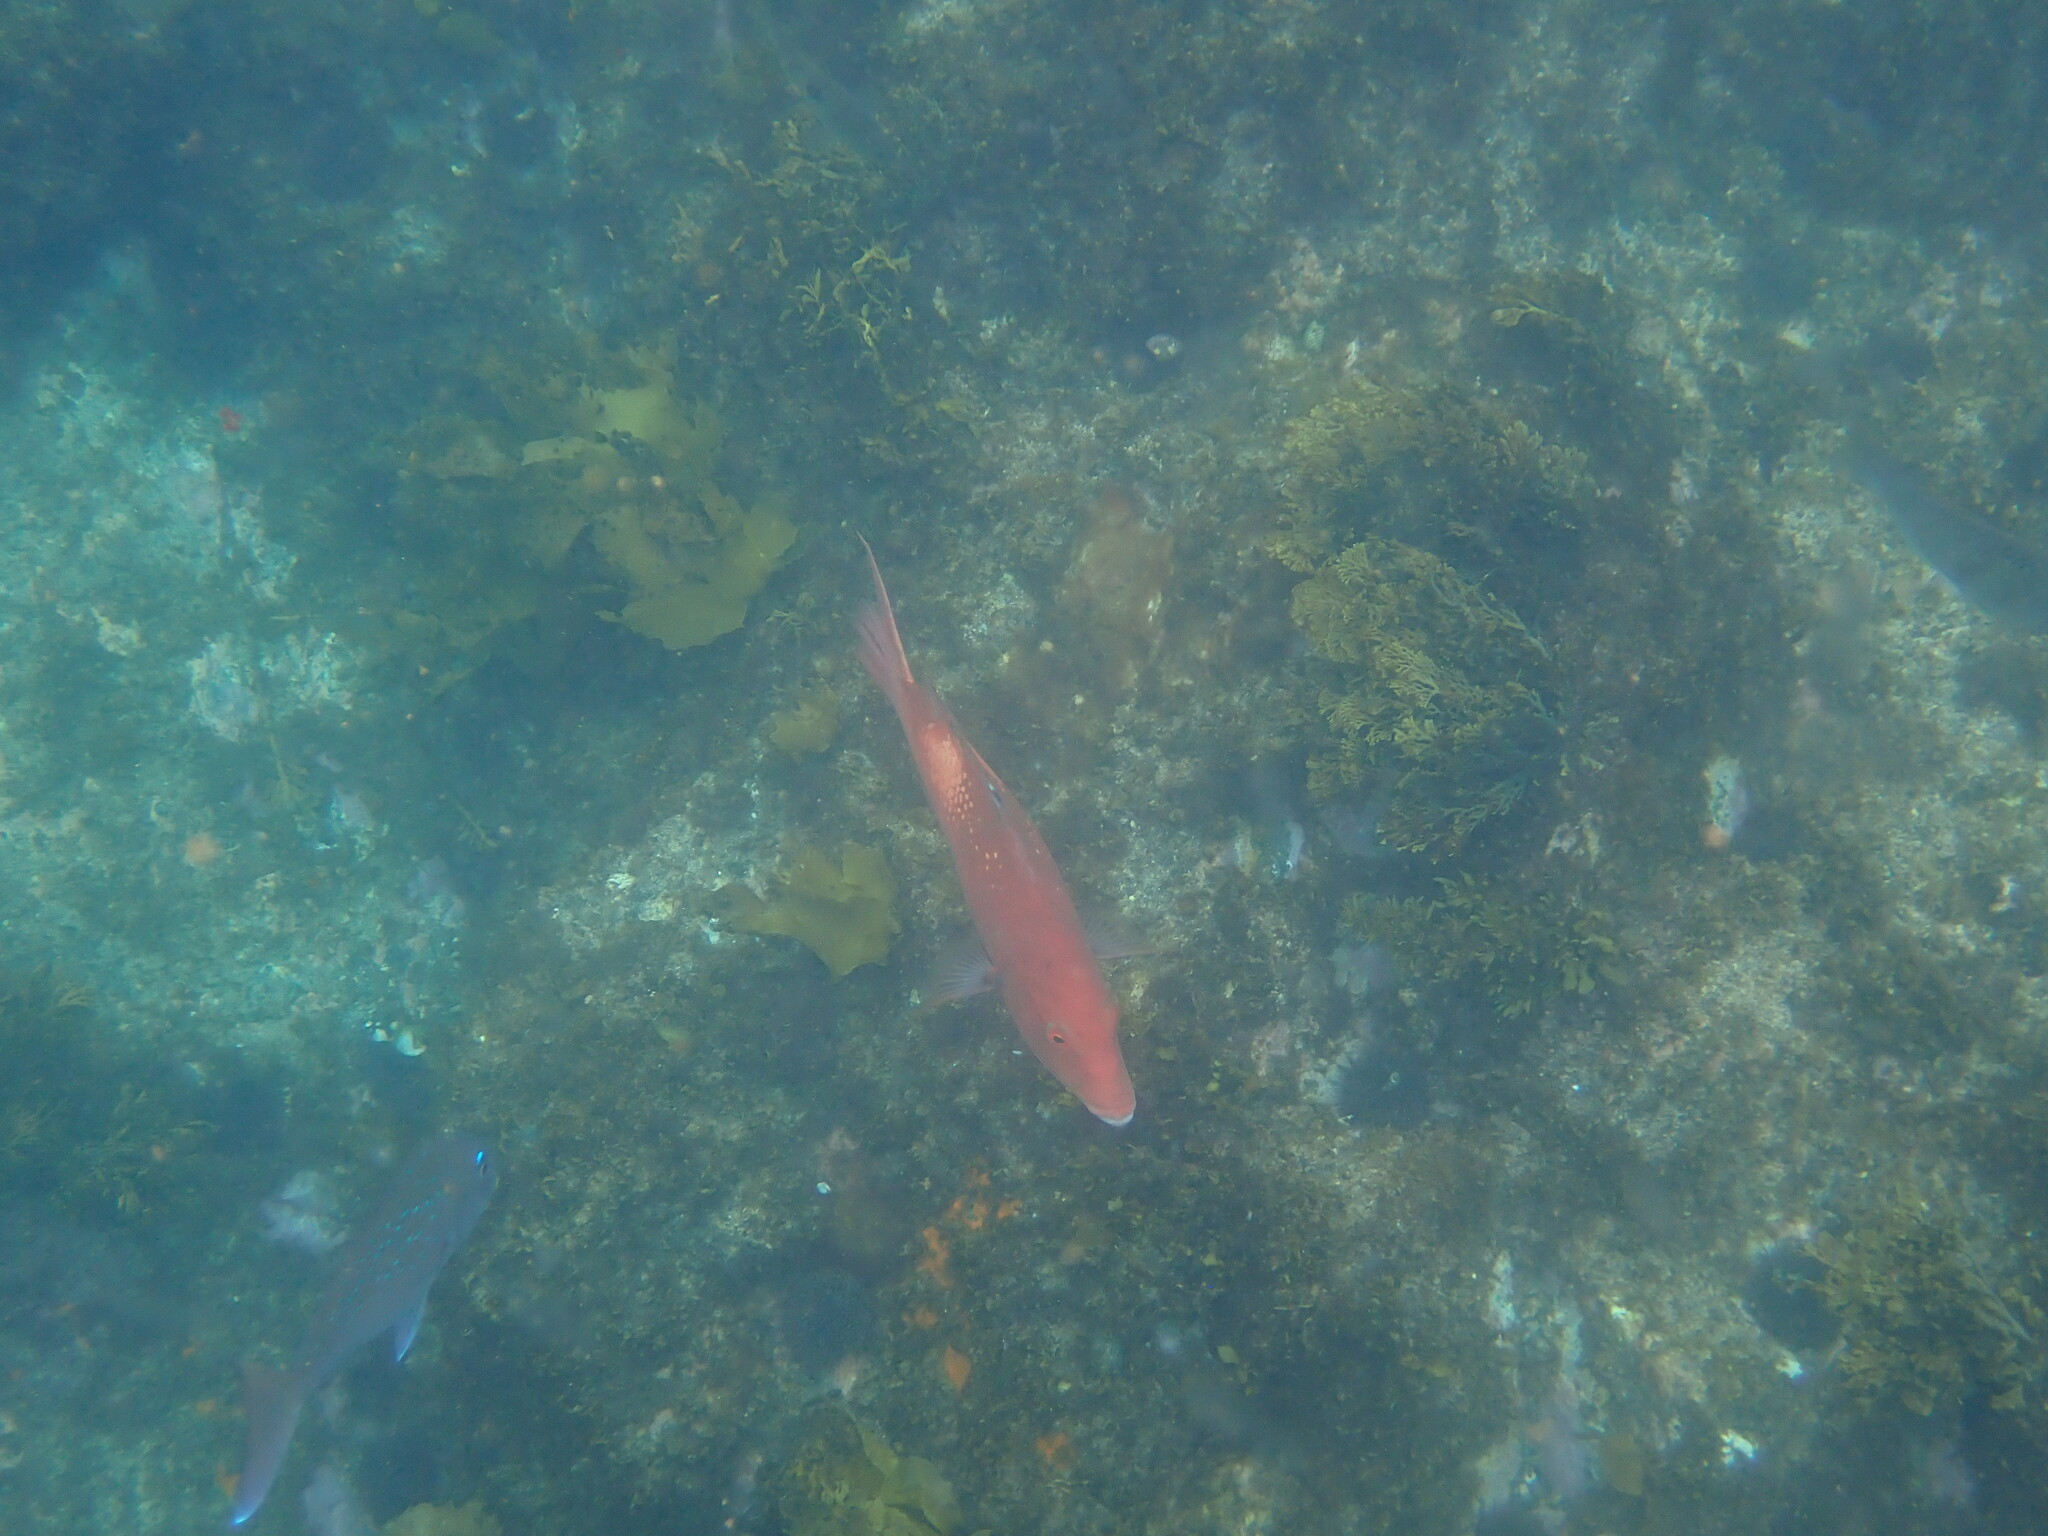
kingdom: Animalia
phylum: Chordata
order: Perciformes
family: Labridae
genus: Bodianus
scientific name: Bodianus unimaculatus
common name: Pigfish
